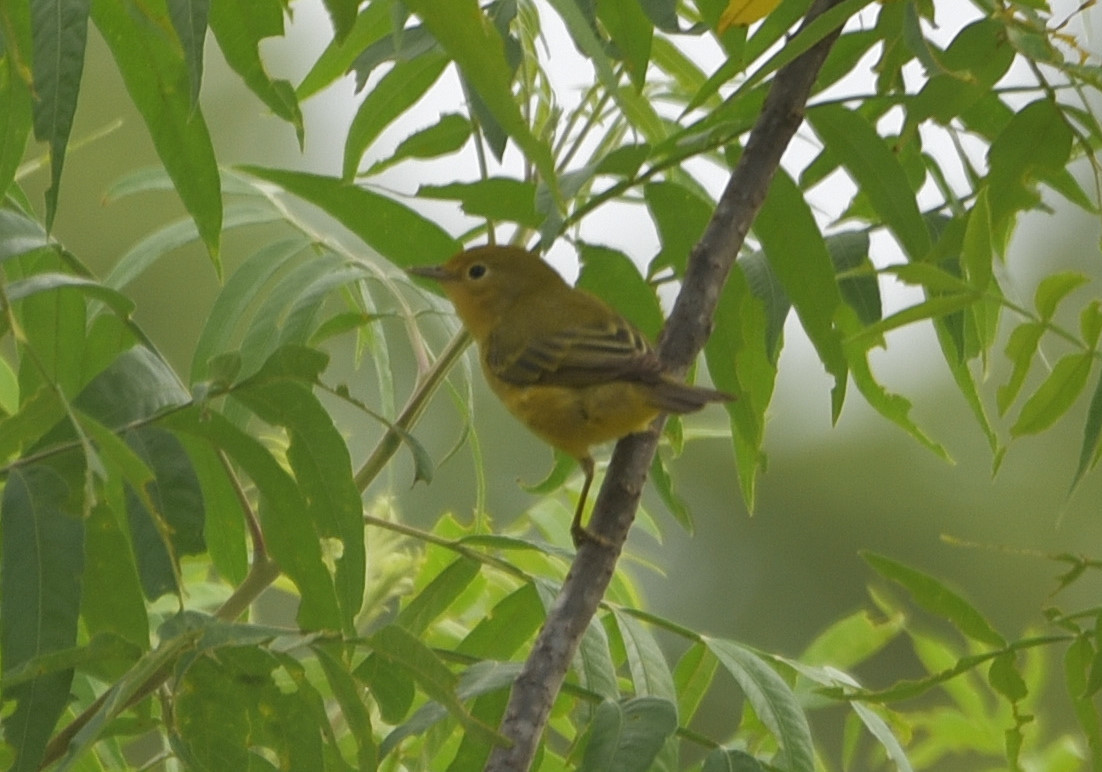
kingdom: Animalia
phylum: Chordata
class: Aves
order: Passeriformes
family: Parulidae
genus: Setophaga
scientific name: Setophaga petechia
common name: Yellow warbler
